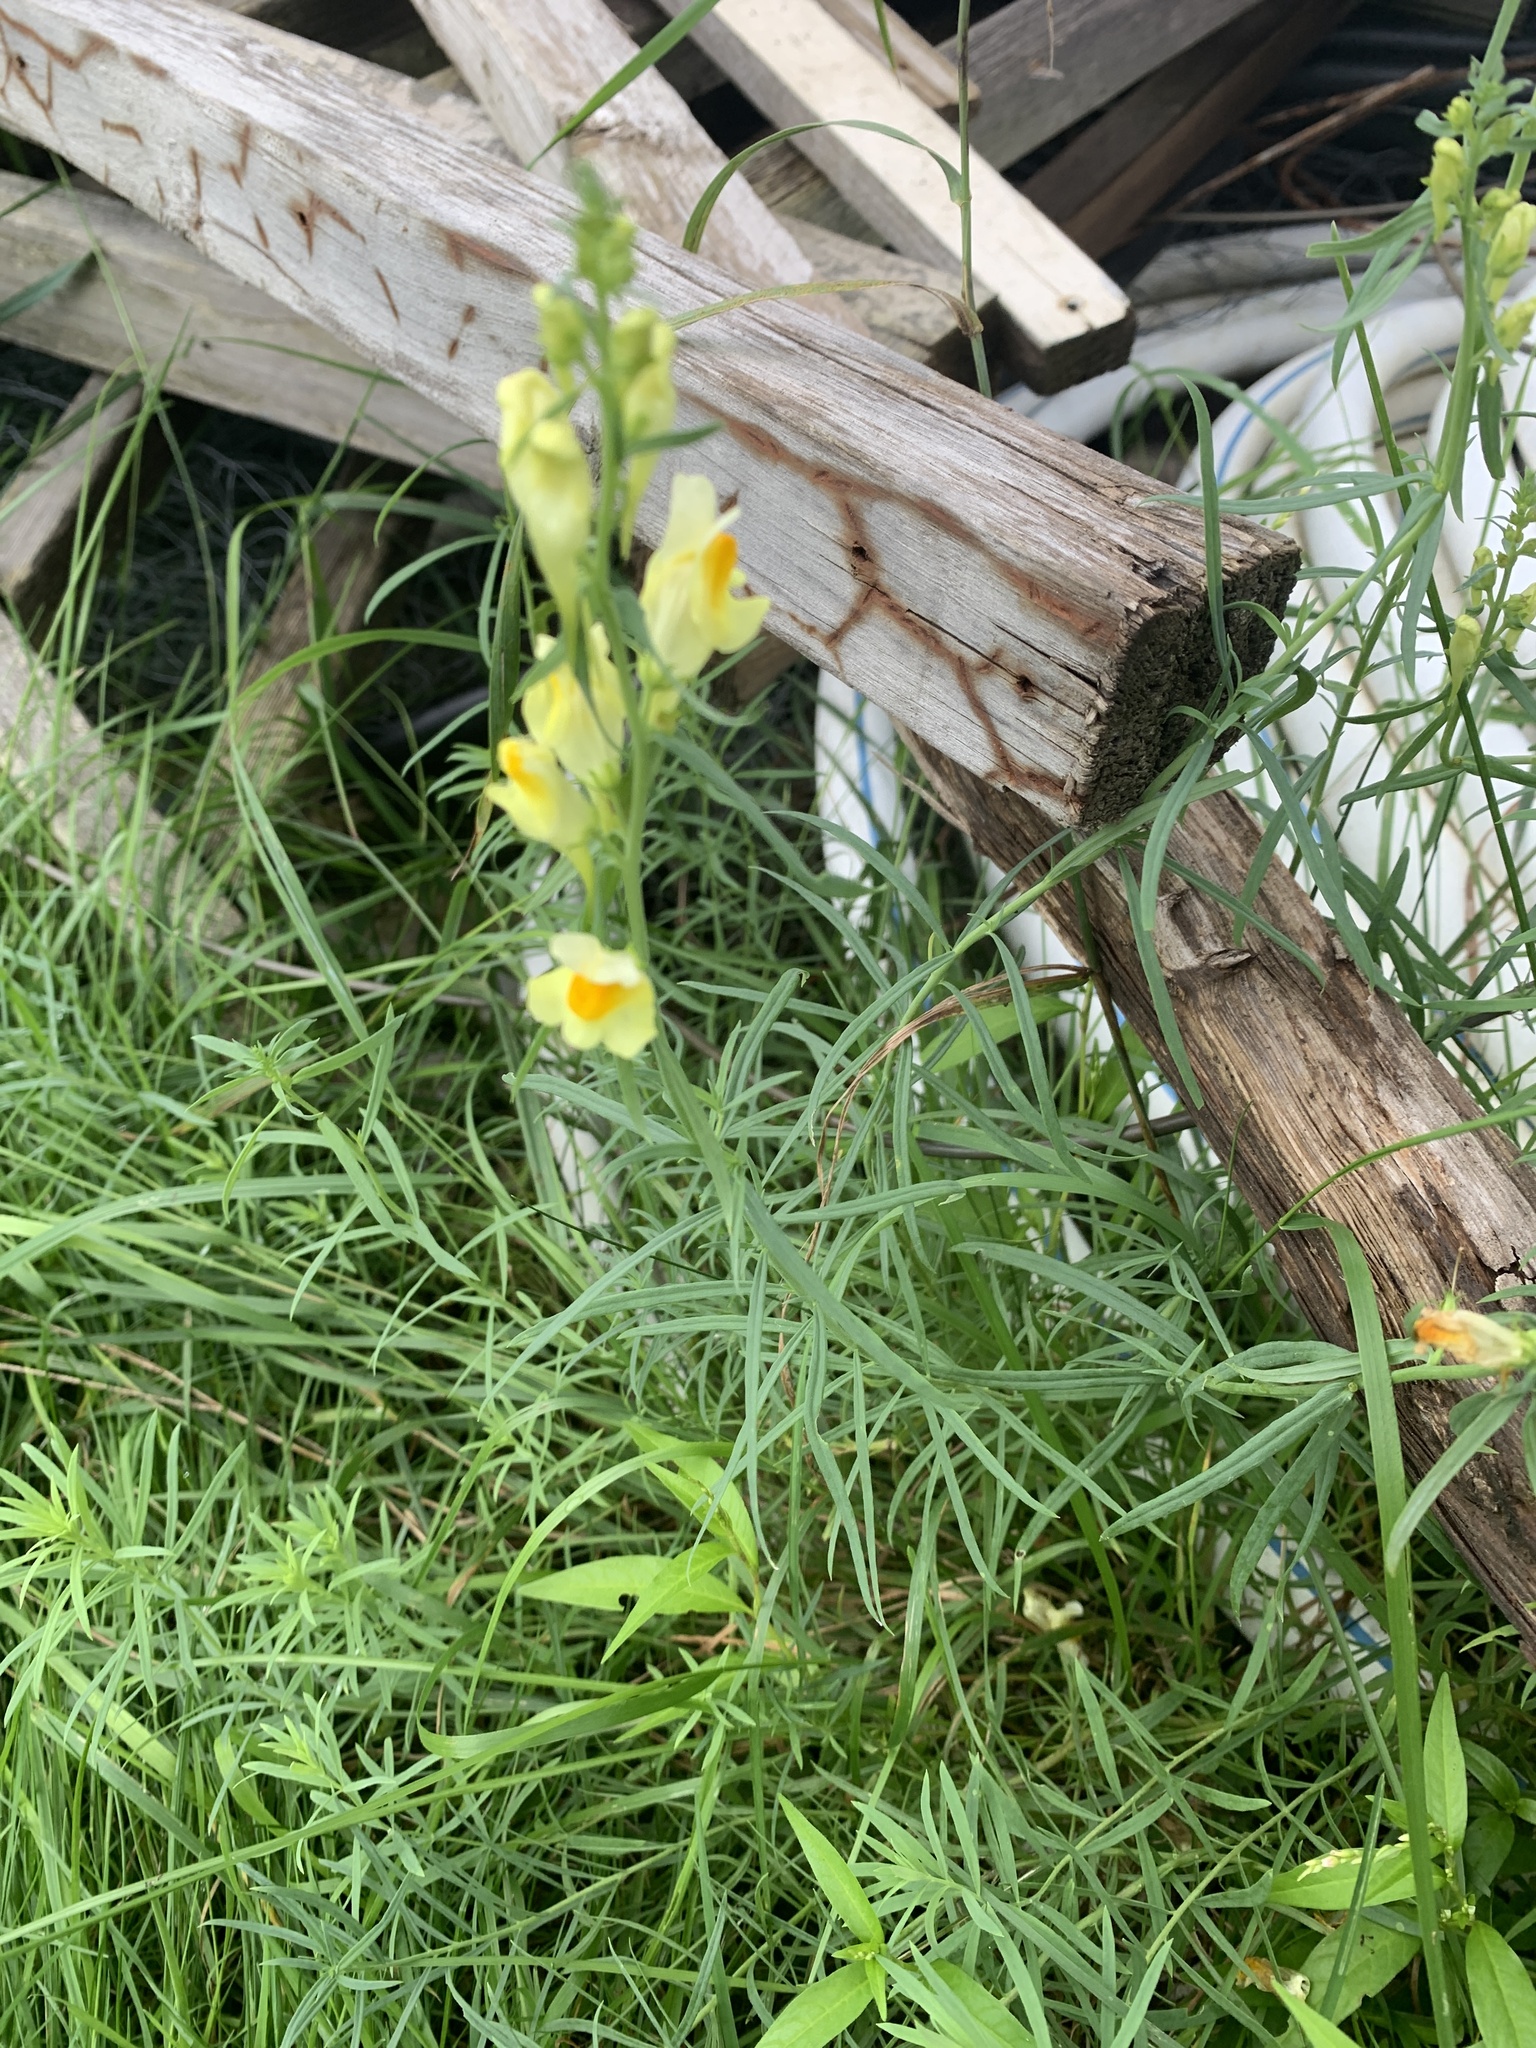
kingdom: Plantae
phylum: Tracheophyta
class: Magnoliopsida
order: Lamiales
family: Plantaginaceae
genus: Linaria
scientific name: Linaria vulgaris
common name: Butter and eggs
